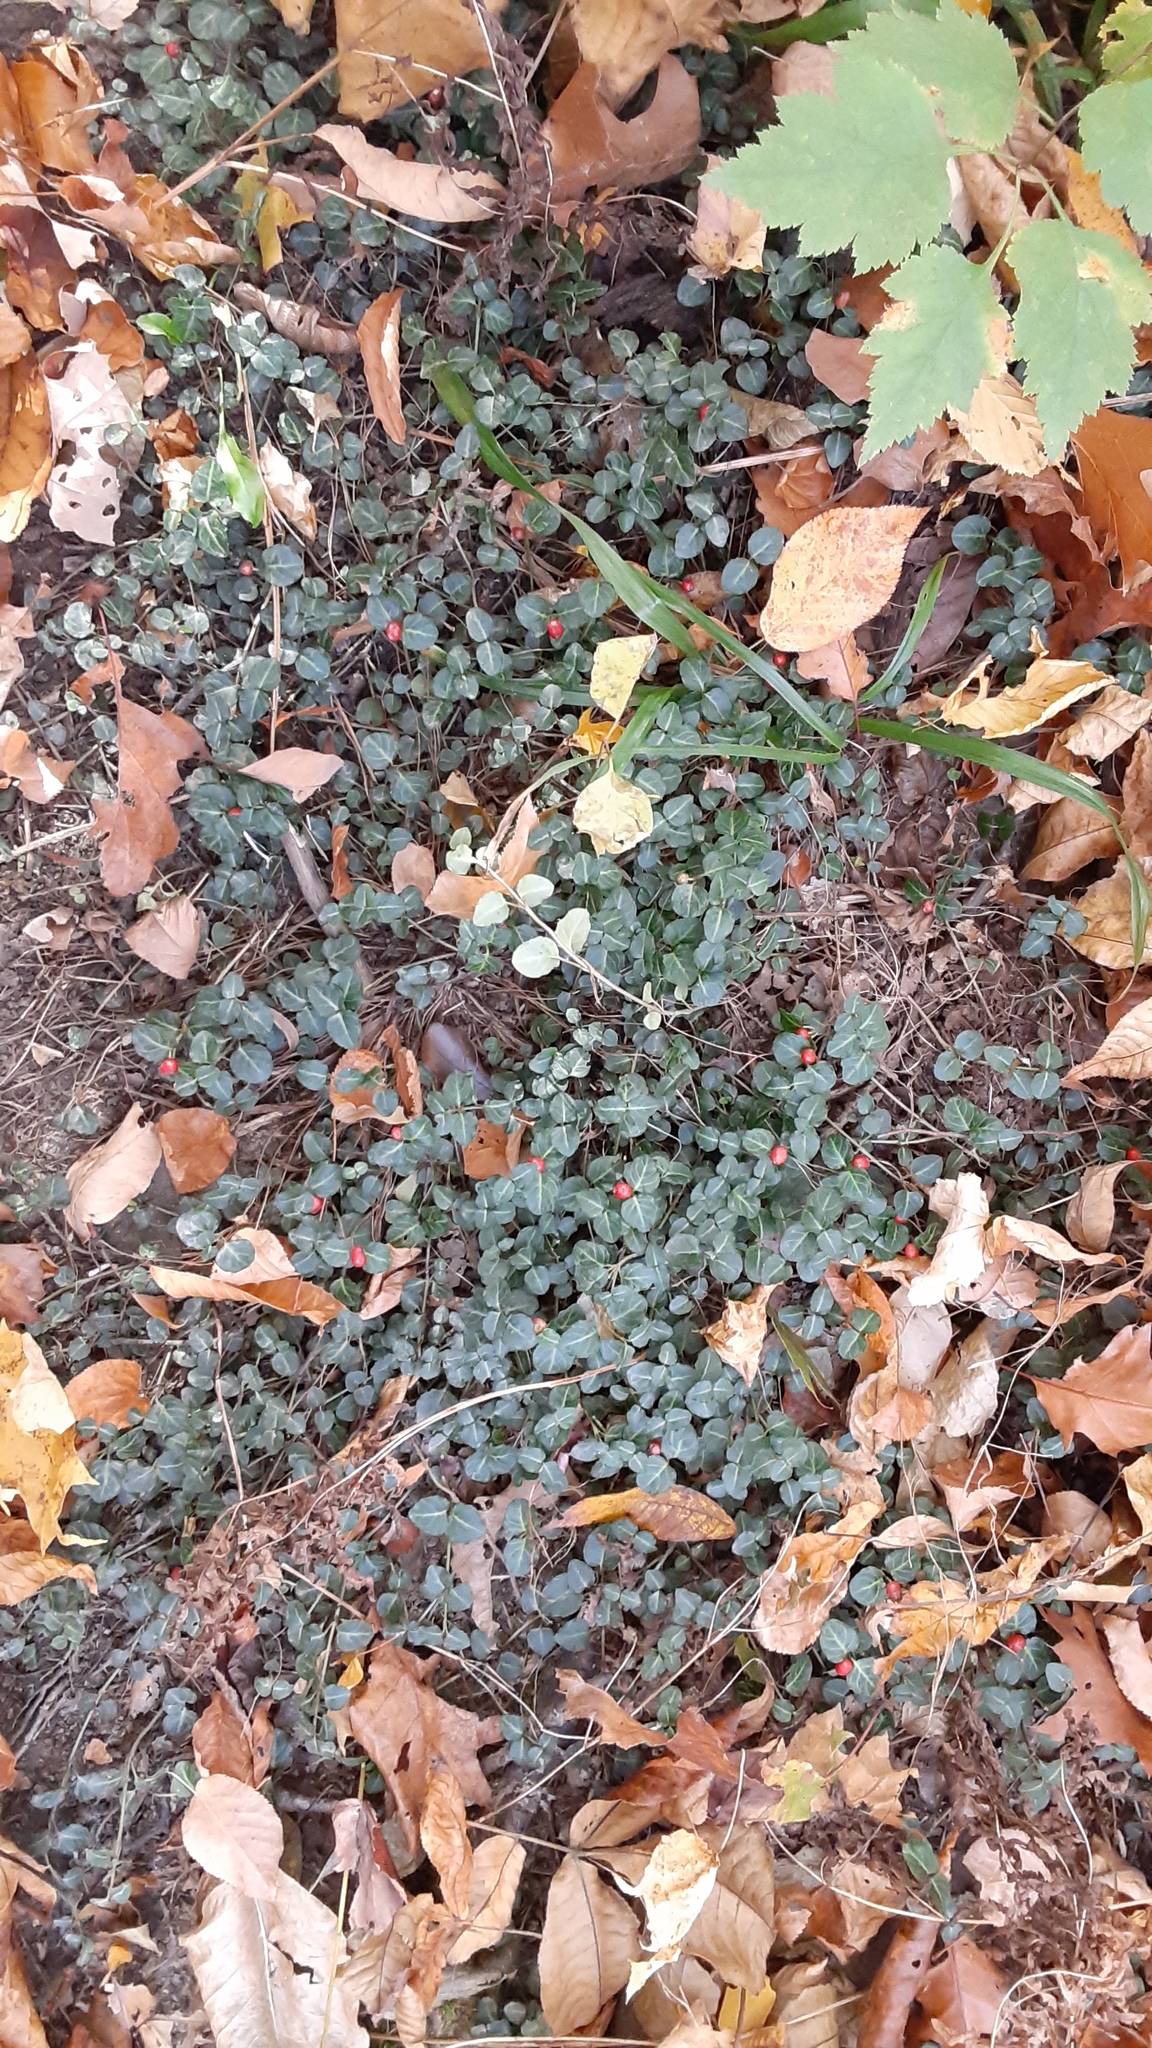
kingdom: Plantae
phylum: Tracheophyta
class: Magnoliopsida
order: Gentianales
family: Rubiaceae
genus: Mitchella
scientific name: Mitchella repens
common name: Partridge-berry
